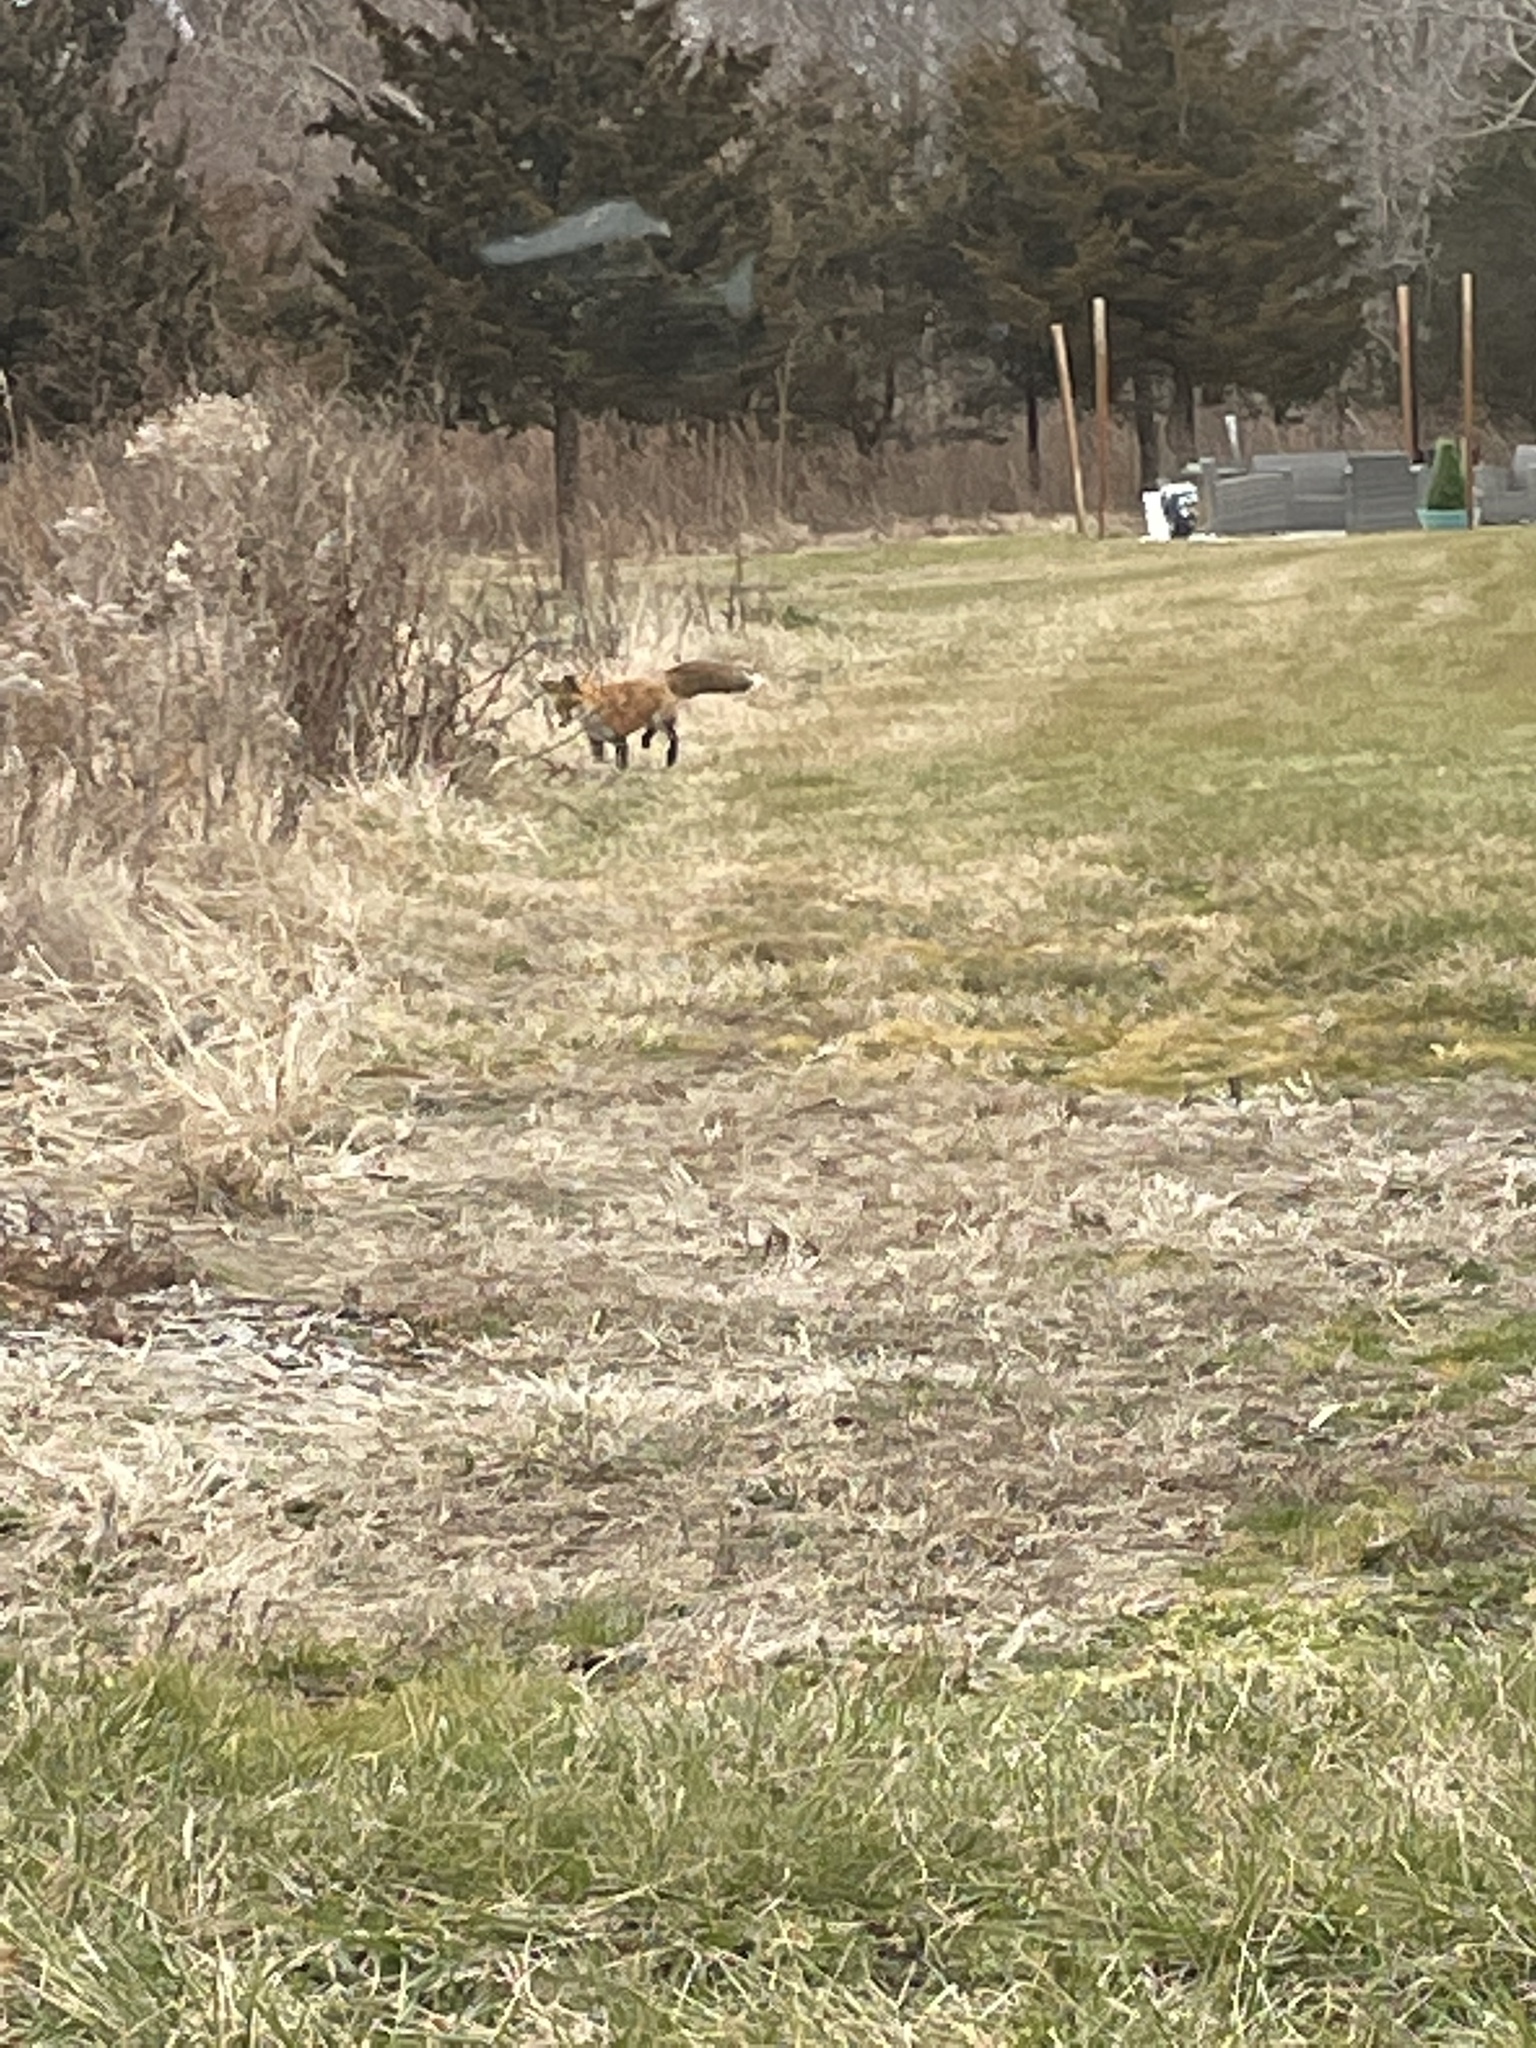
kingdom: Animalia
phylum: Chordata
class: Mammalia
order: Carnivora
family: Canidae
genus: Vulpes
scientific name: Vulpes vulpes
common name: Red fox
